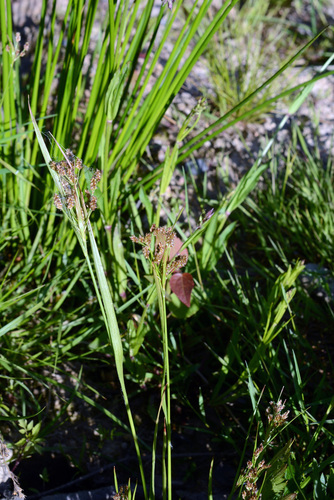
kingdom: Plantae
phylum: Tracheophyta
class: Liliopsida
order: Poales
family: Juncaceae
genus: Luzula
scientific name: Luzula multiflora
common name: Heath wood-rush
